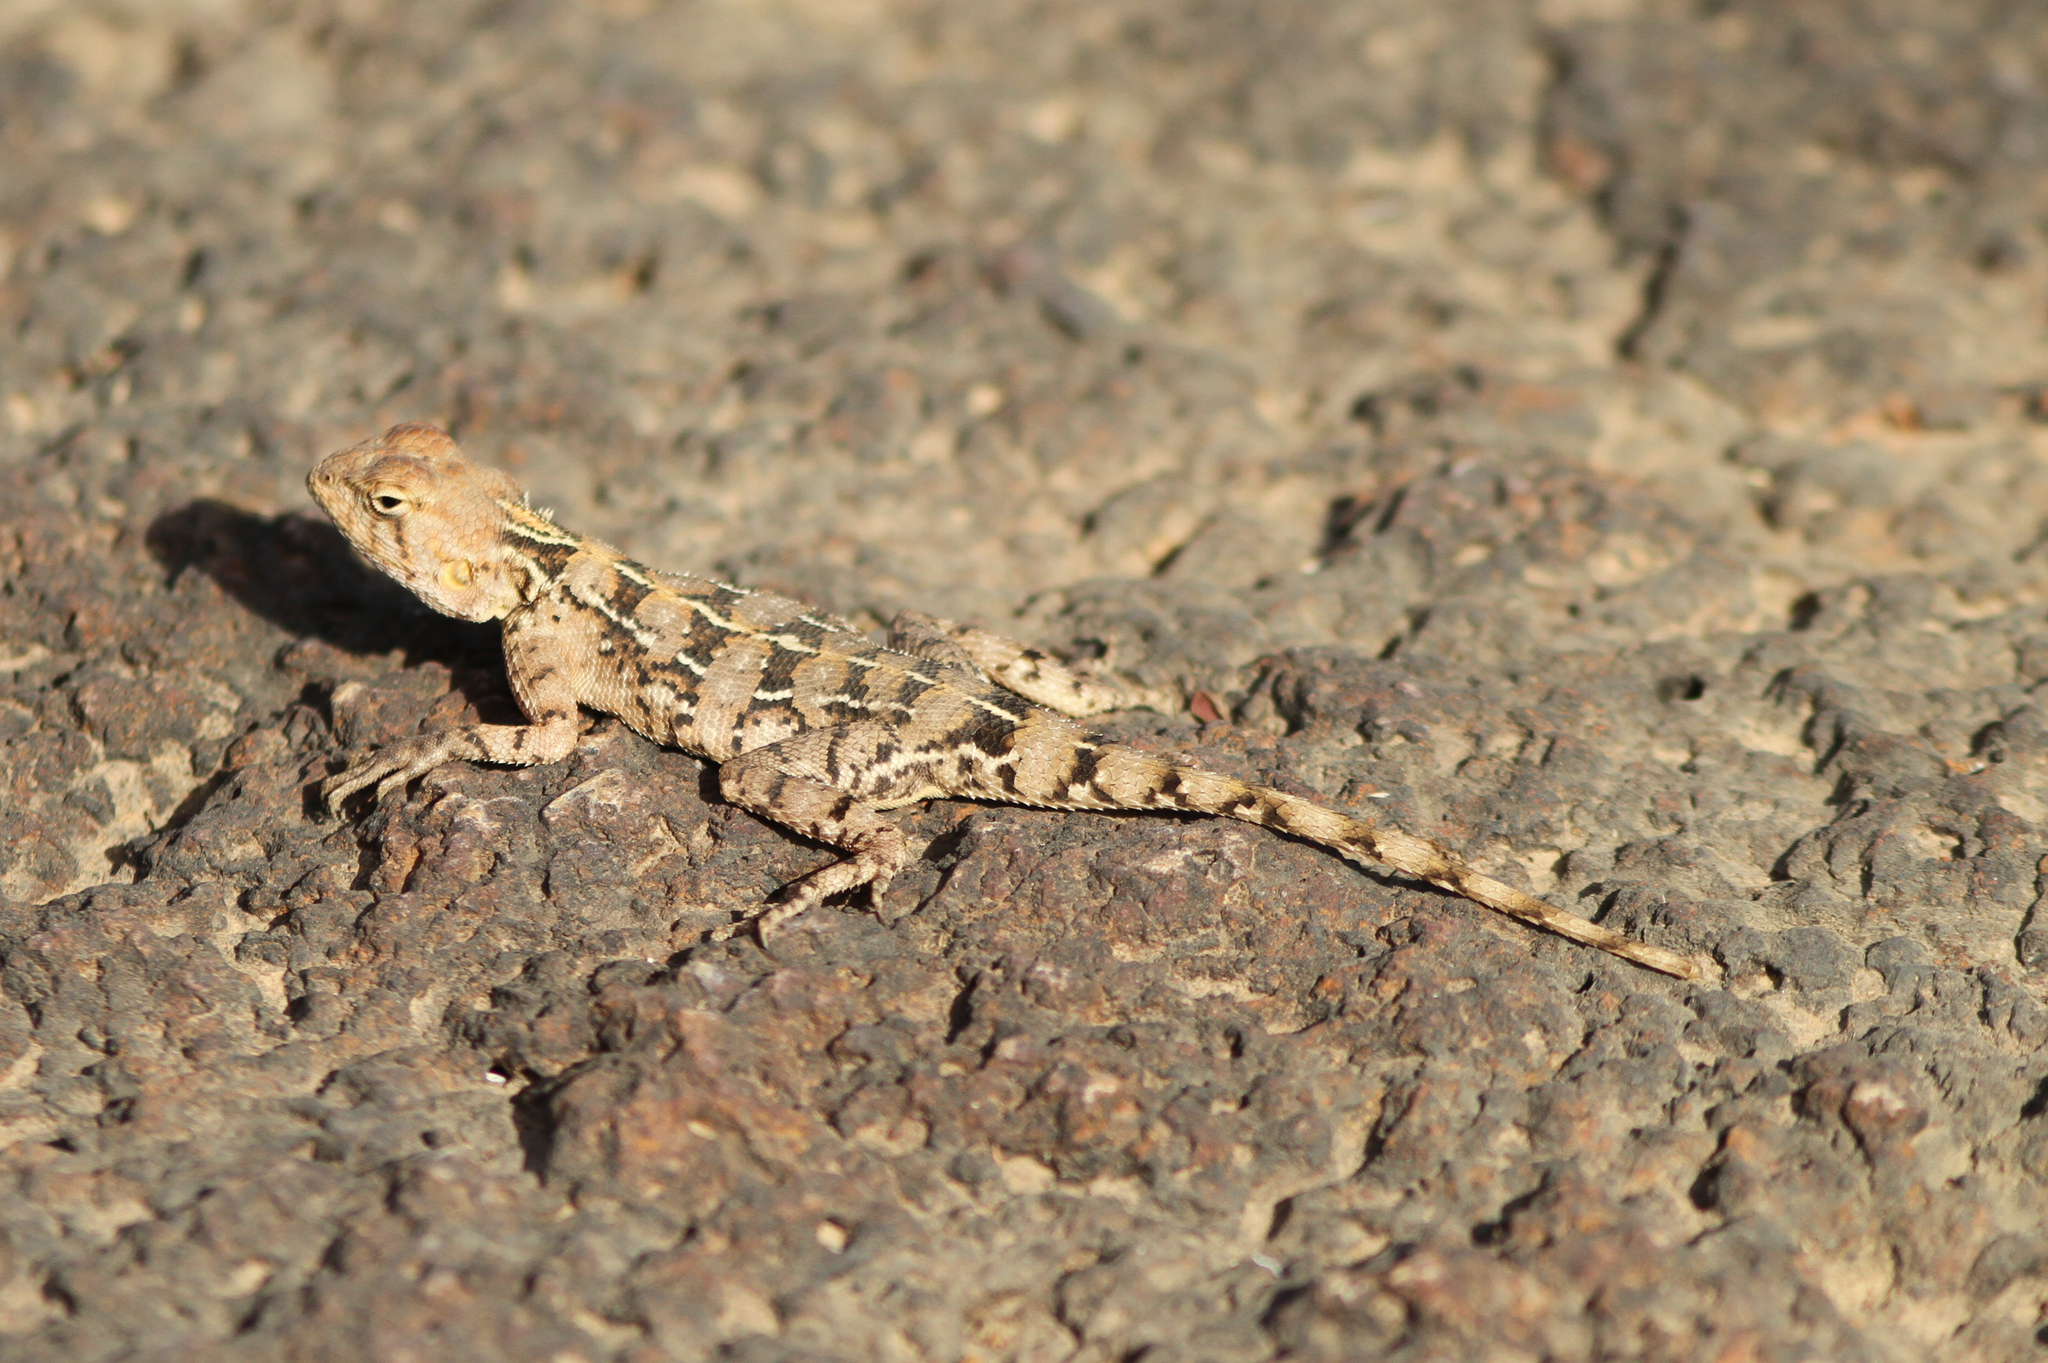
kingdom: Animalia
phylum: Chordata
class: Squamata
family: Agamidae
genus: Agama
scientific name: Agama boensis
